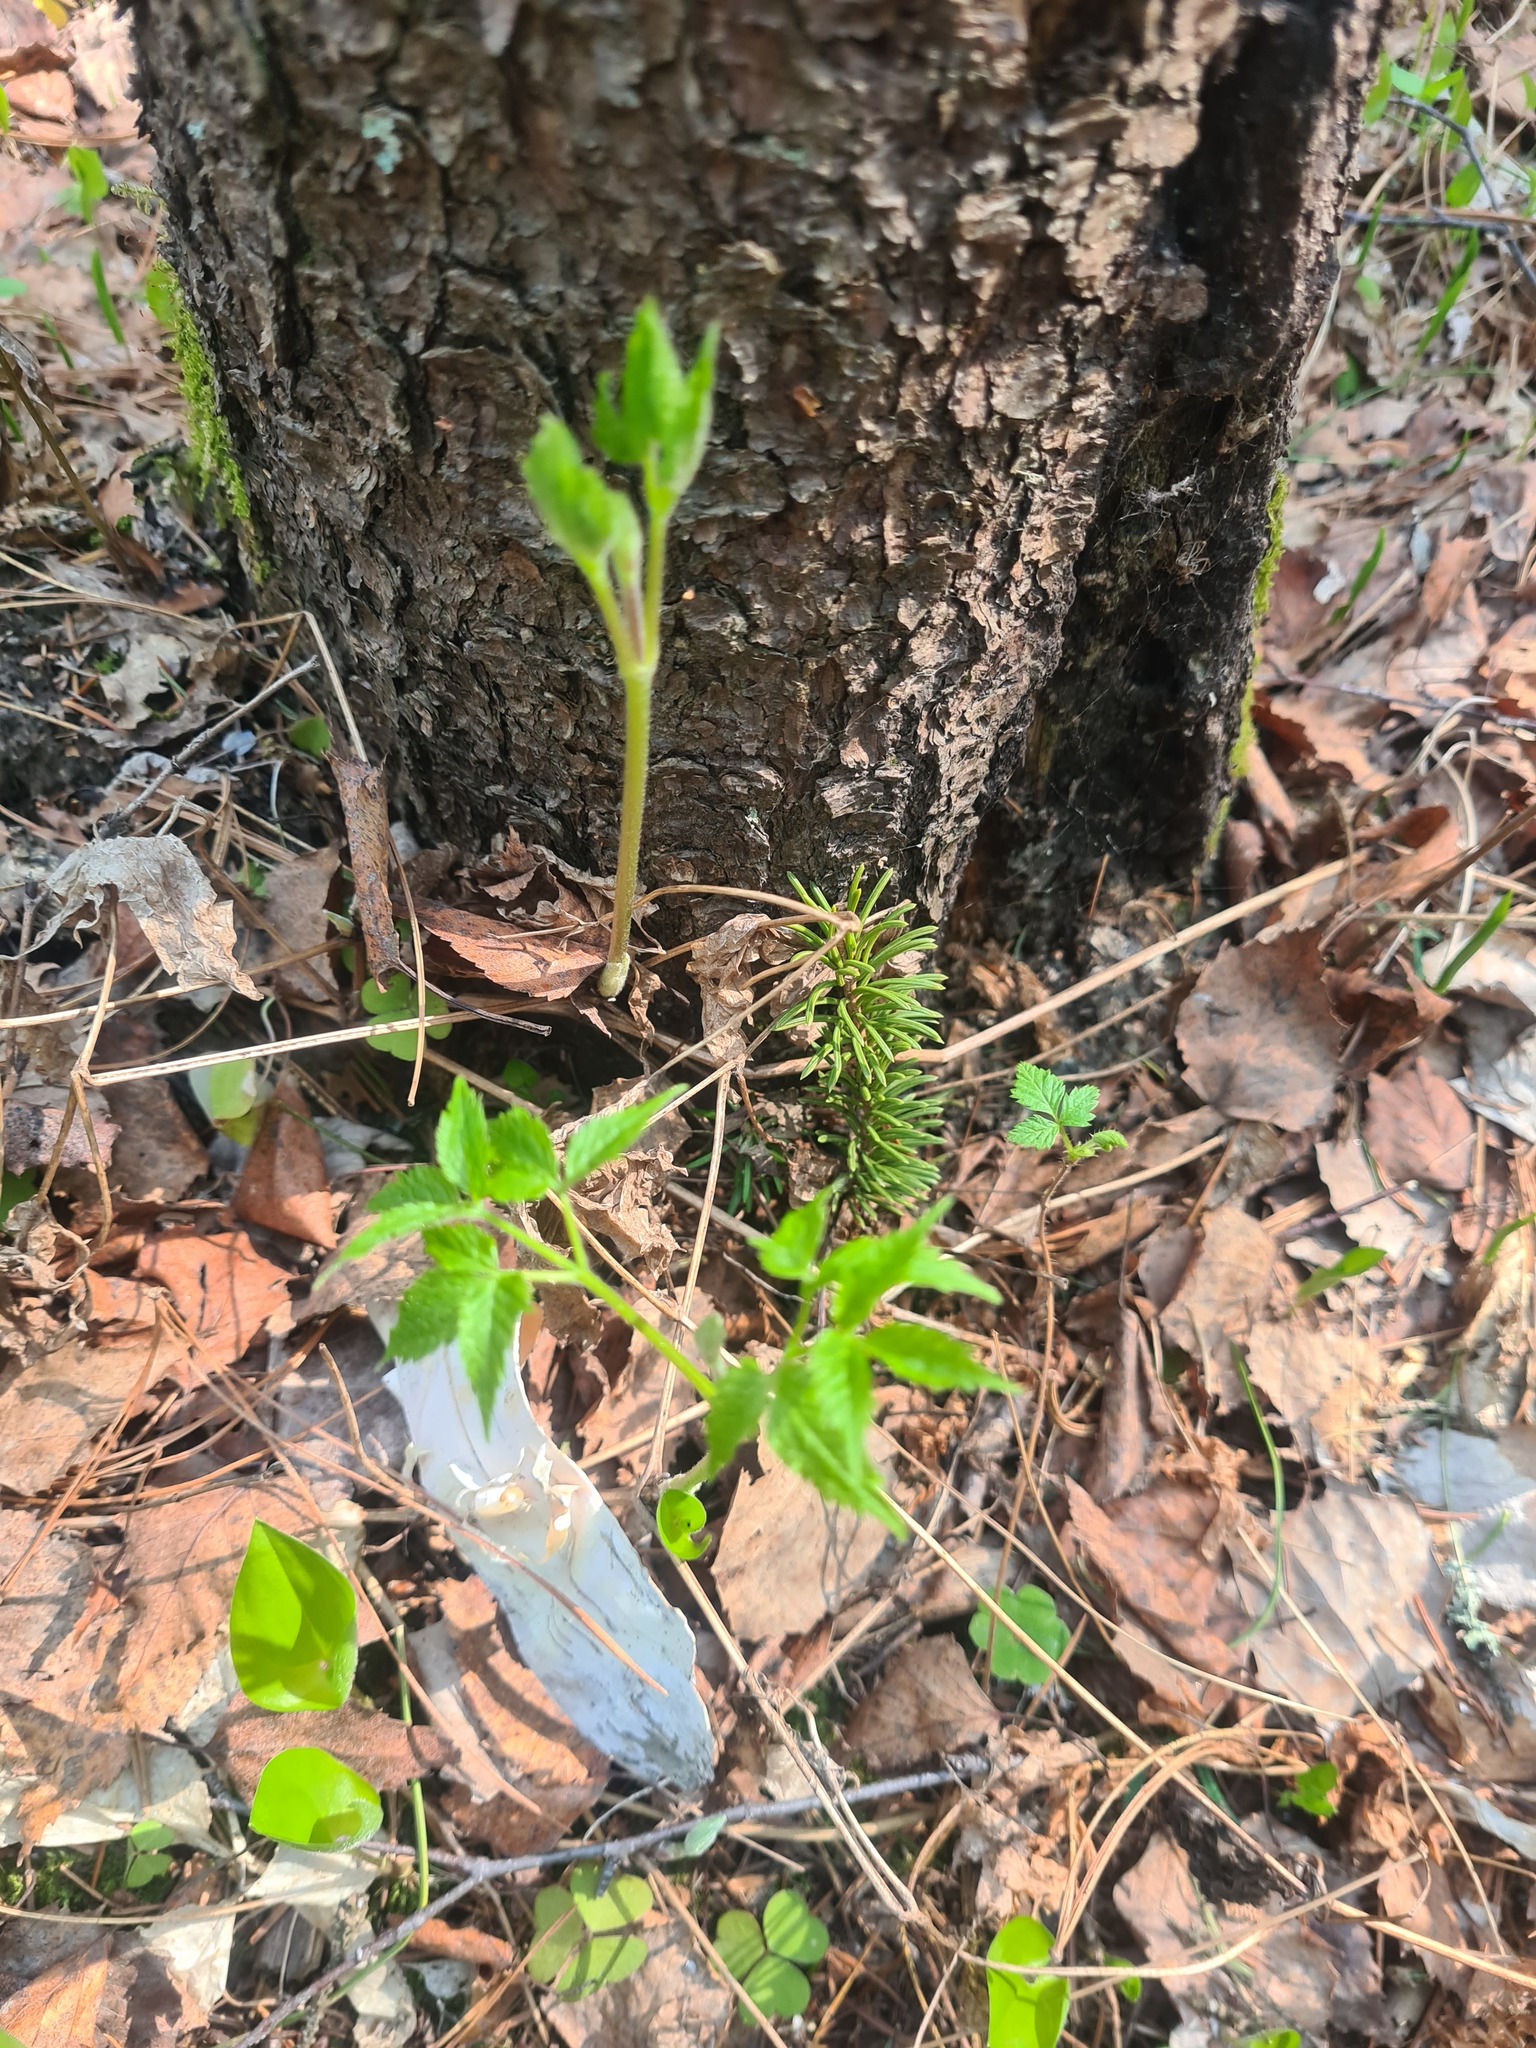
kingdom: Plantae
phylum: Tracheophyta
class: Magnoliopsida
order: Ranunculales
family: Ranunculaceae
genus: Clematis
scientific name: Clematis sibirica
